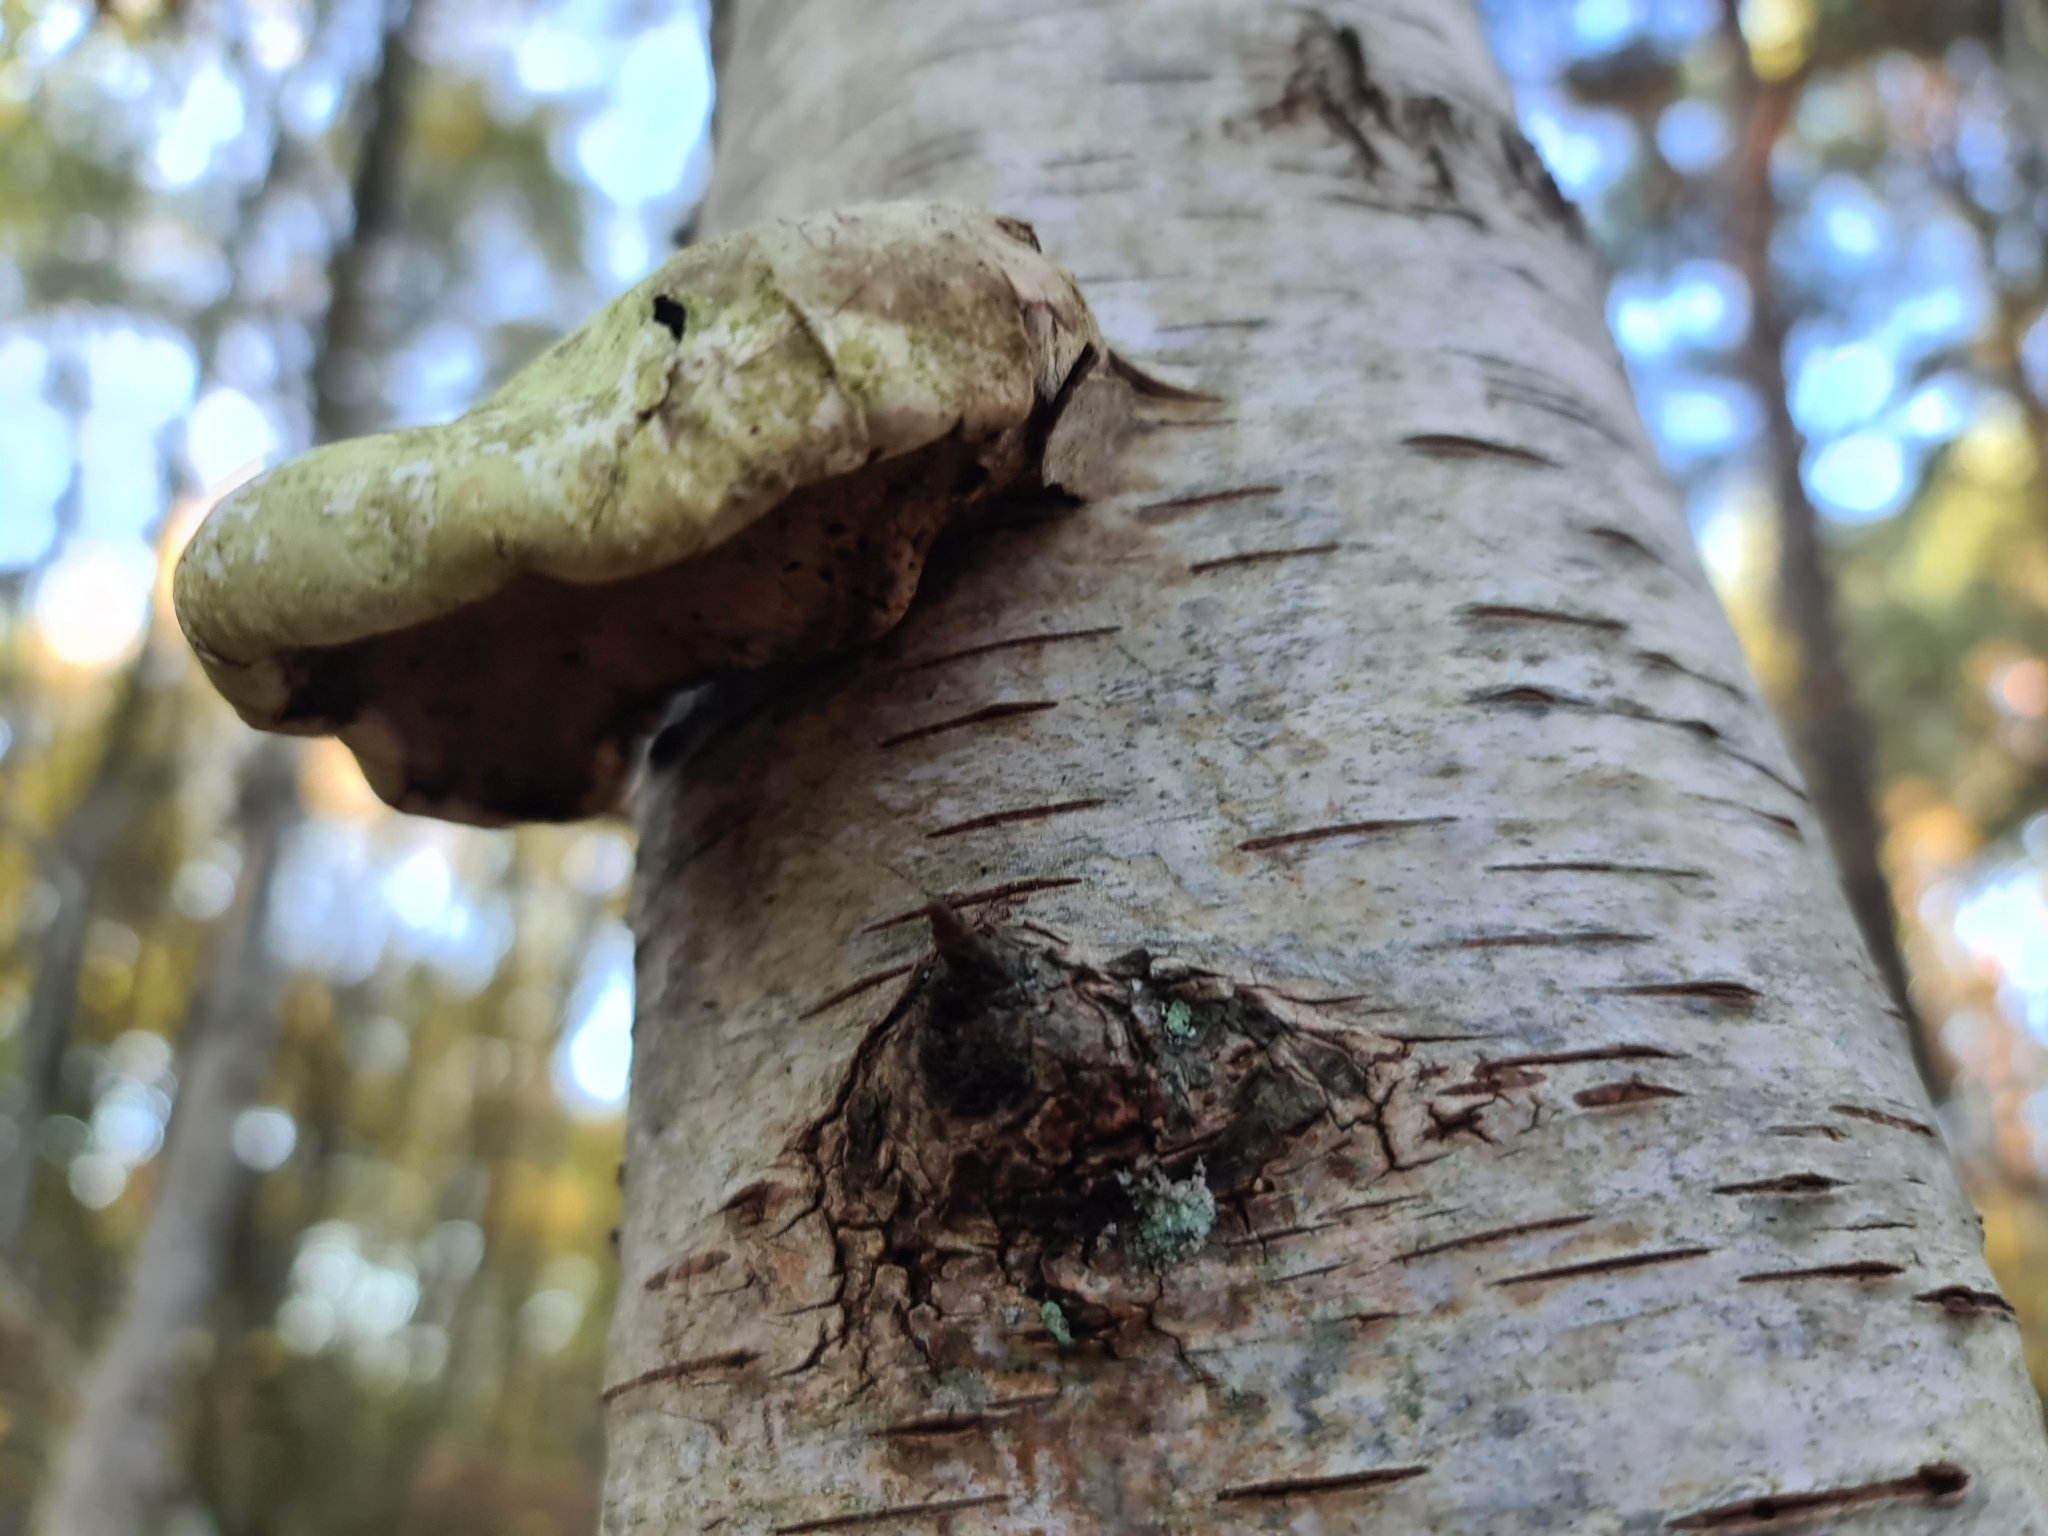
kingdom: Fungi
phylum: Basidiomycota
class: Agaricomycetes
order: Polyporales
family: Fomitopsidaceae
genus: Fomitopsis
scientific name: Fomitopsis betulina
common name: Birch polypore
